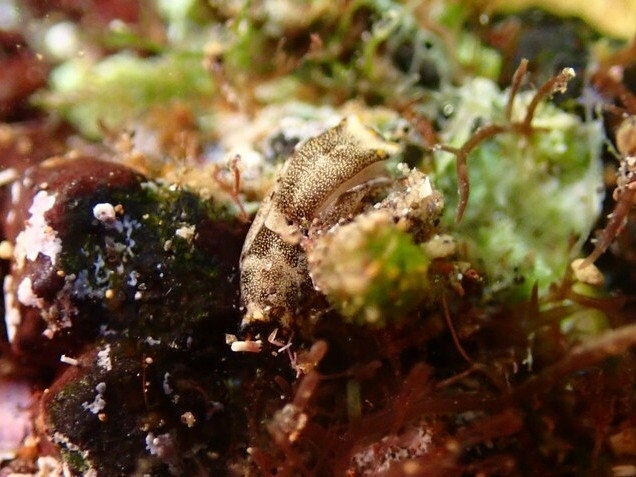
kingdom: Animalia
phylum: Mollusca
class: Gastropoda
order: Cephalaspidea
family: Aglajidae
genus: Biuve
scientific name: Biuve fulvipunctata
